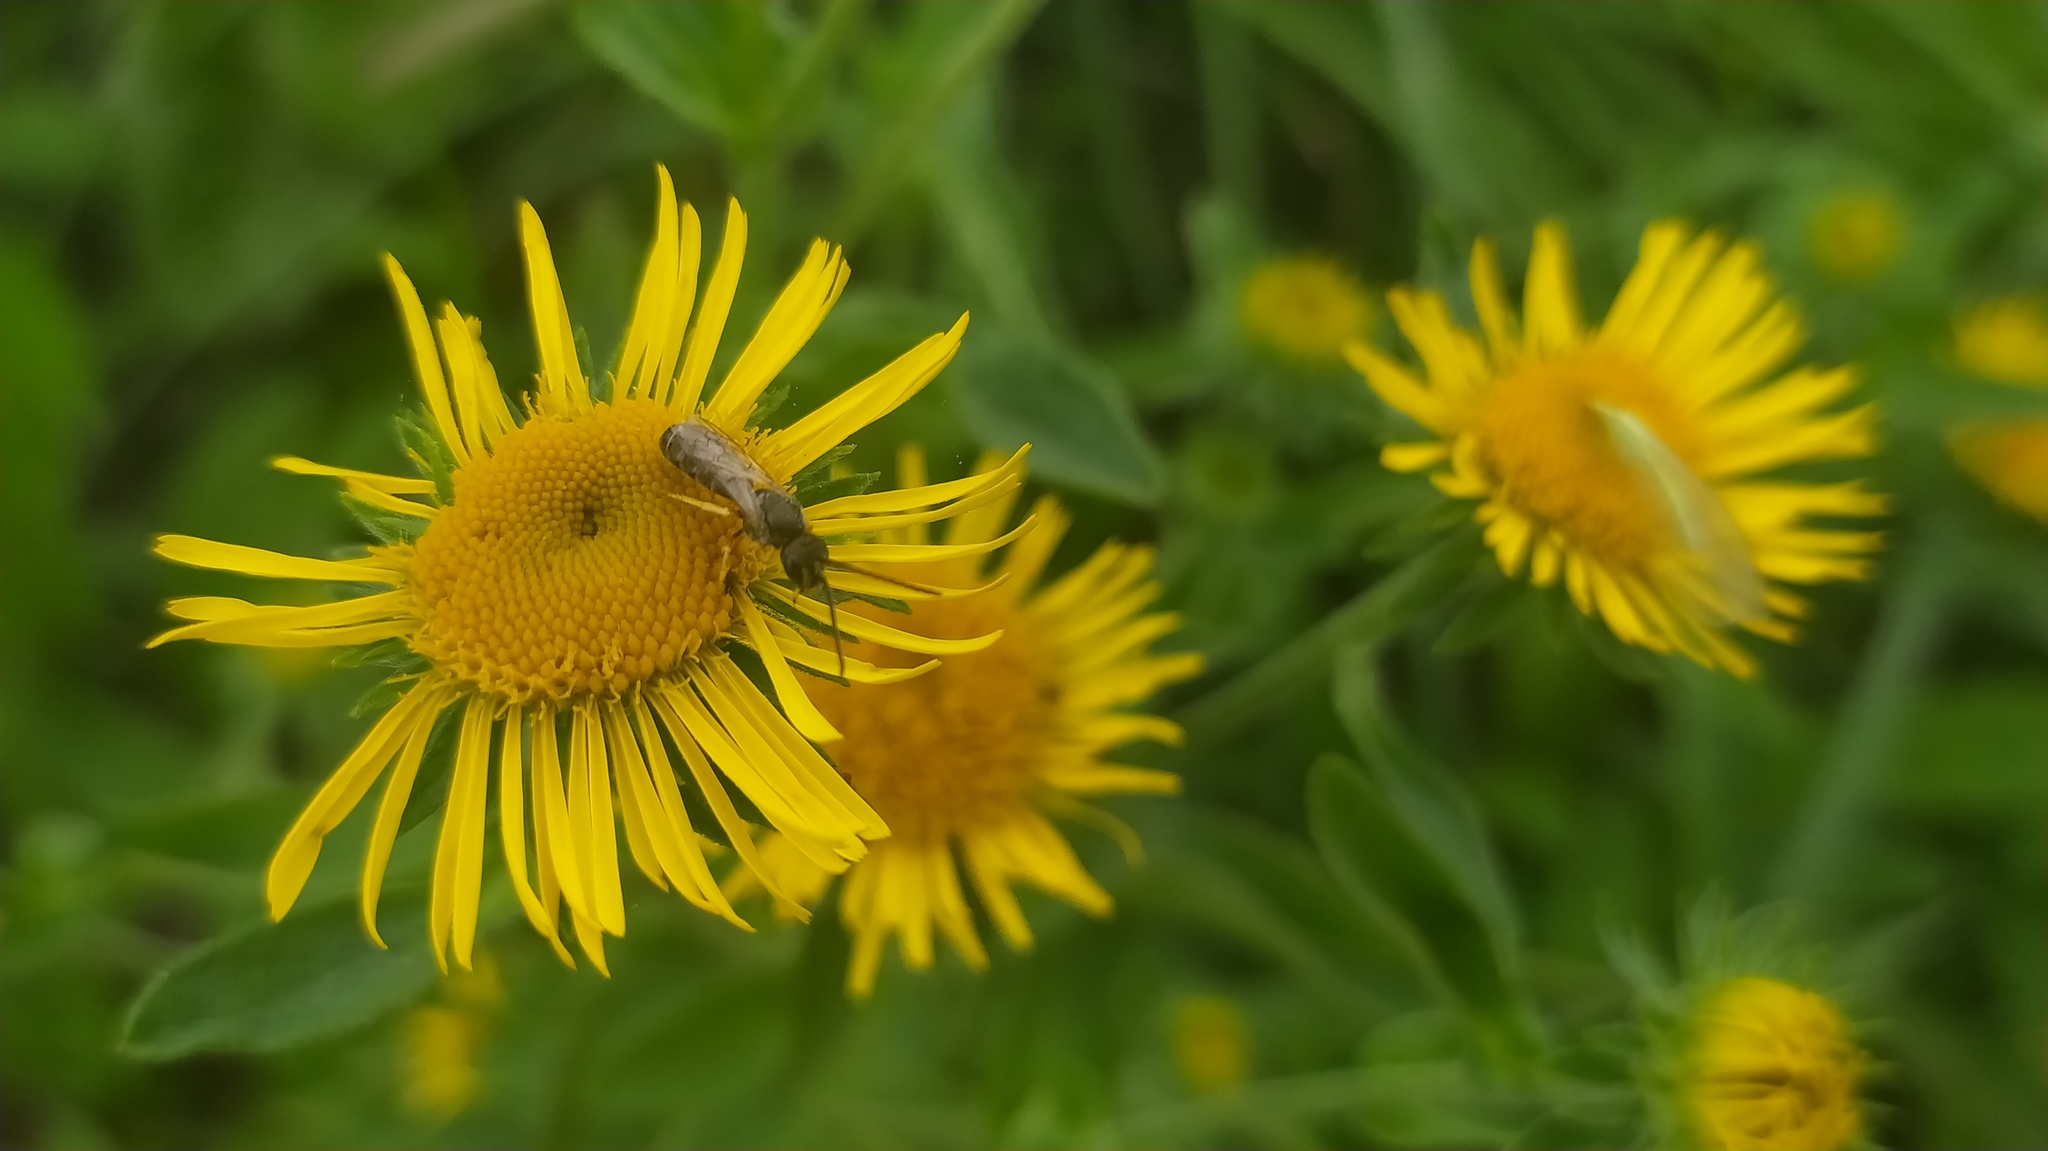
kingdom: Plantae
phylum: Tracheophyta
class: Magnoliopsida
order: Asterales
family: Asteraceae
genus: Pentanema
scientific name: Pentanema britannicum
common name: British elecampane
